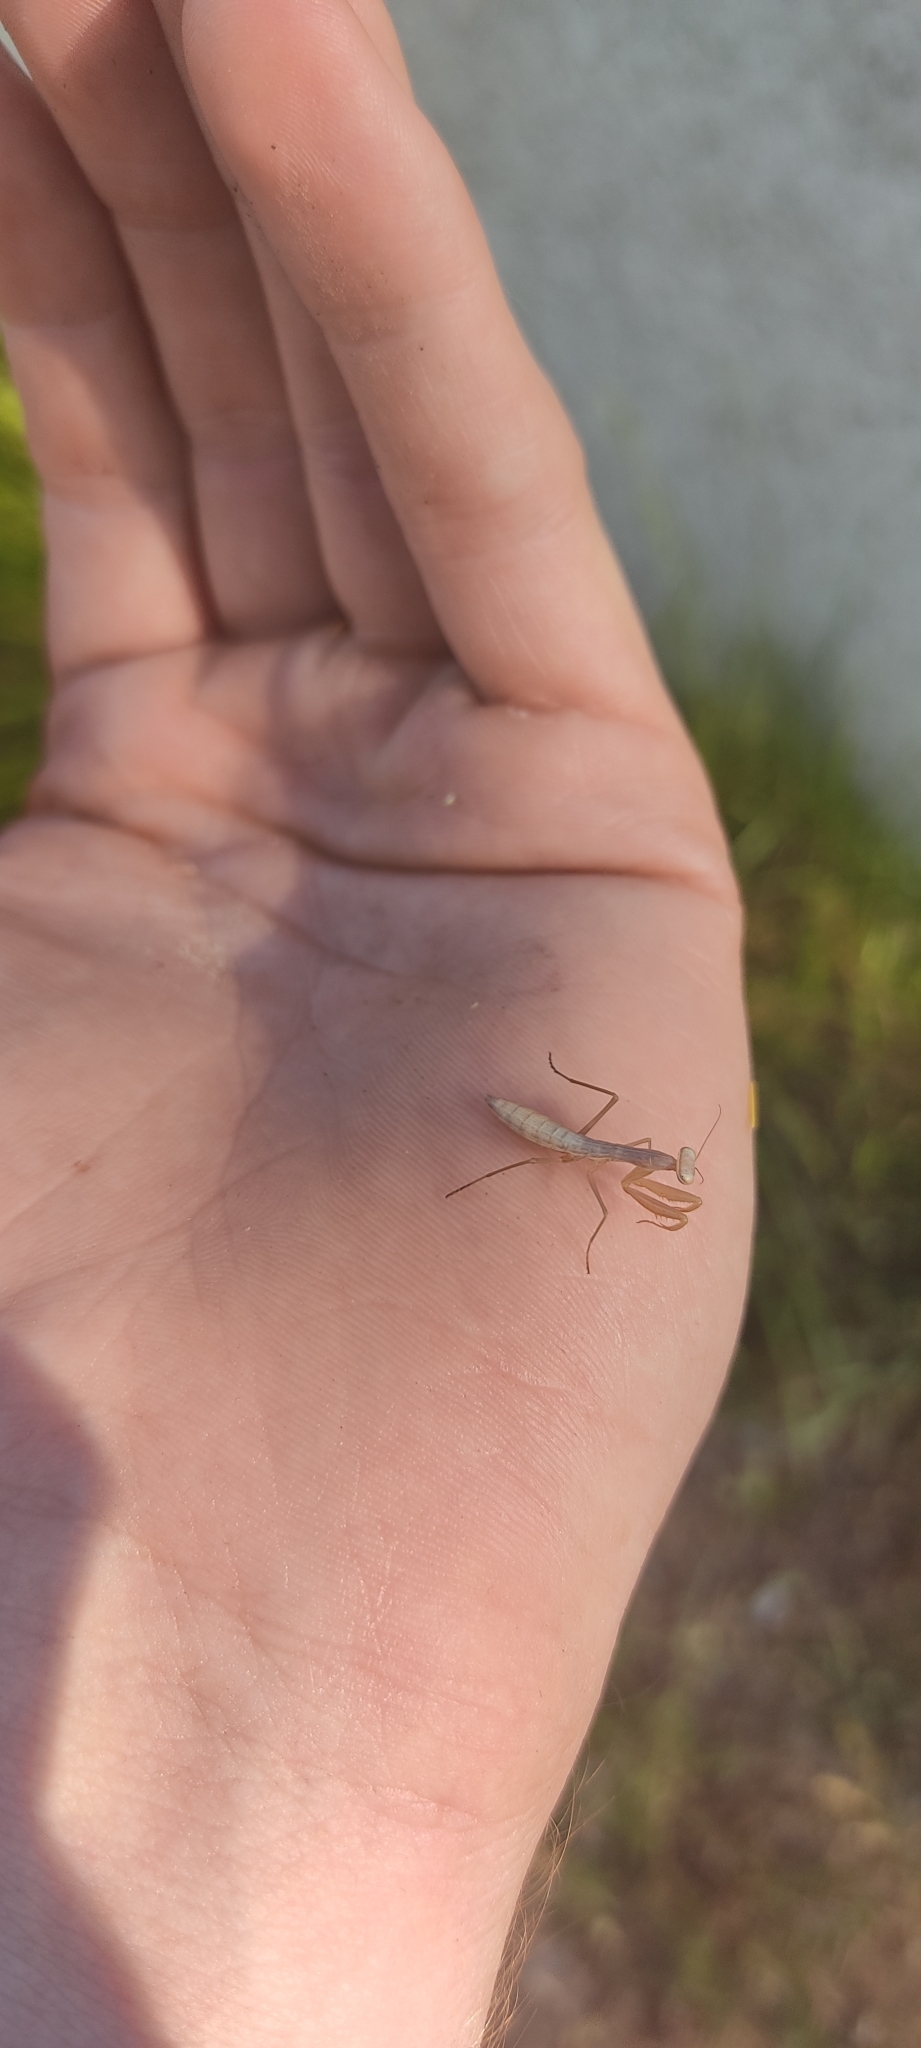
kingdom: Animalia
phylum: Arthropoda
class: Insecta
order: Mantodea
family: Mantidae
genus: Mantis
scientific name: Mantis religiosa
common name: Praying mantis
